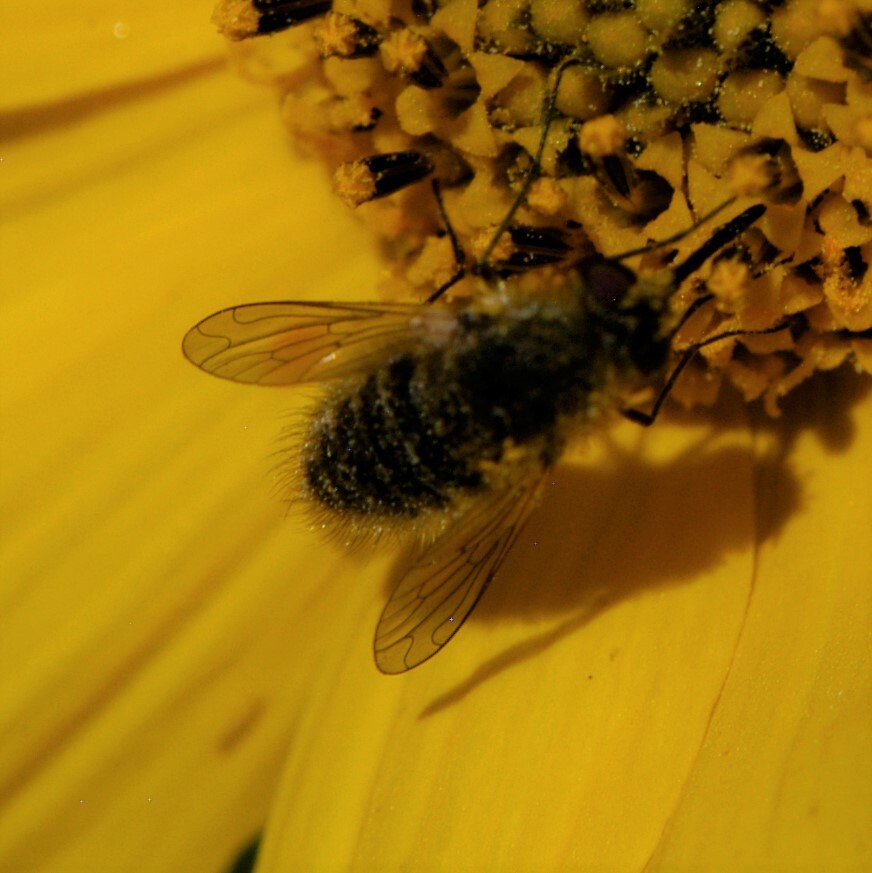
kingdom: Animalia
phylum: Arthropoda
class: Insecta
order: Diptera
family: Bombyliidae
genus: Sparnopolius
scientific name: Sparnopolius
